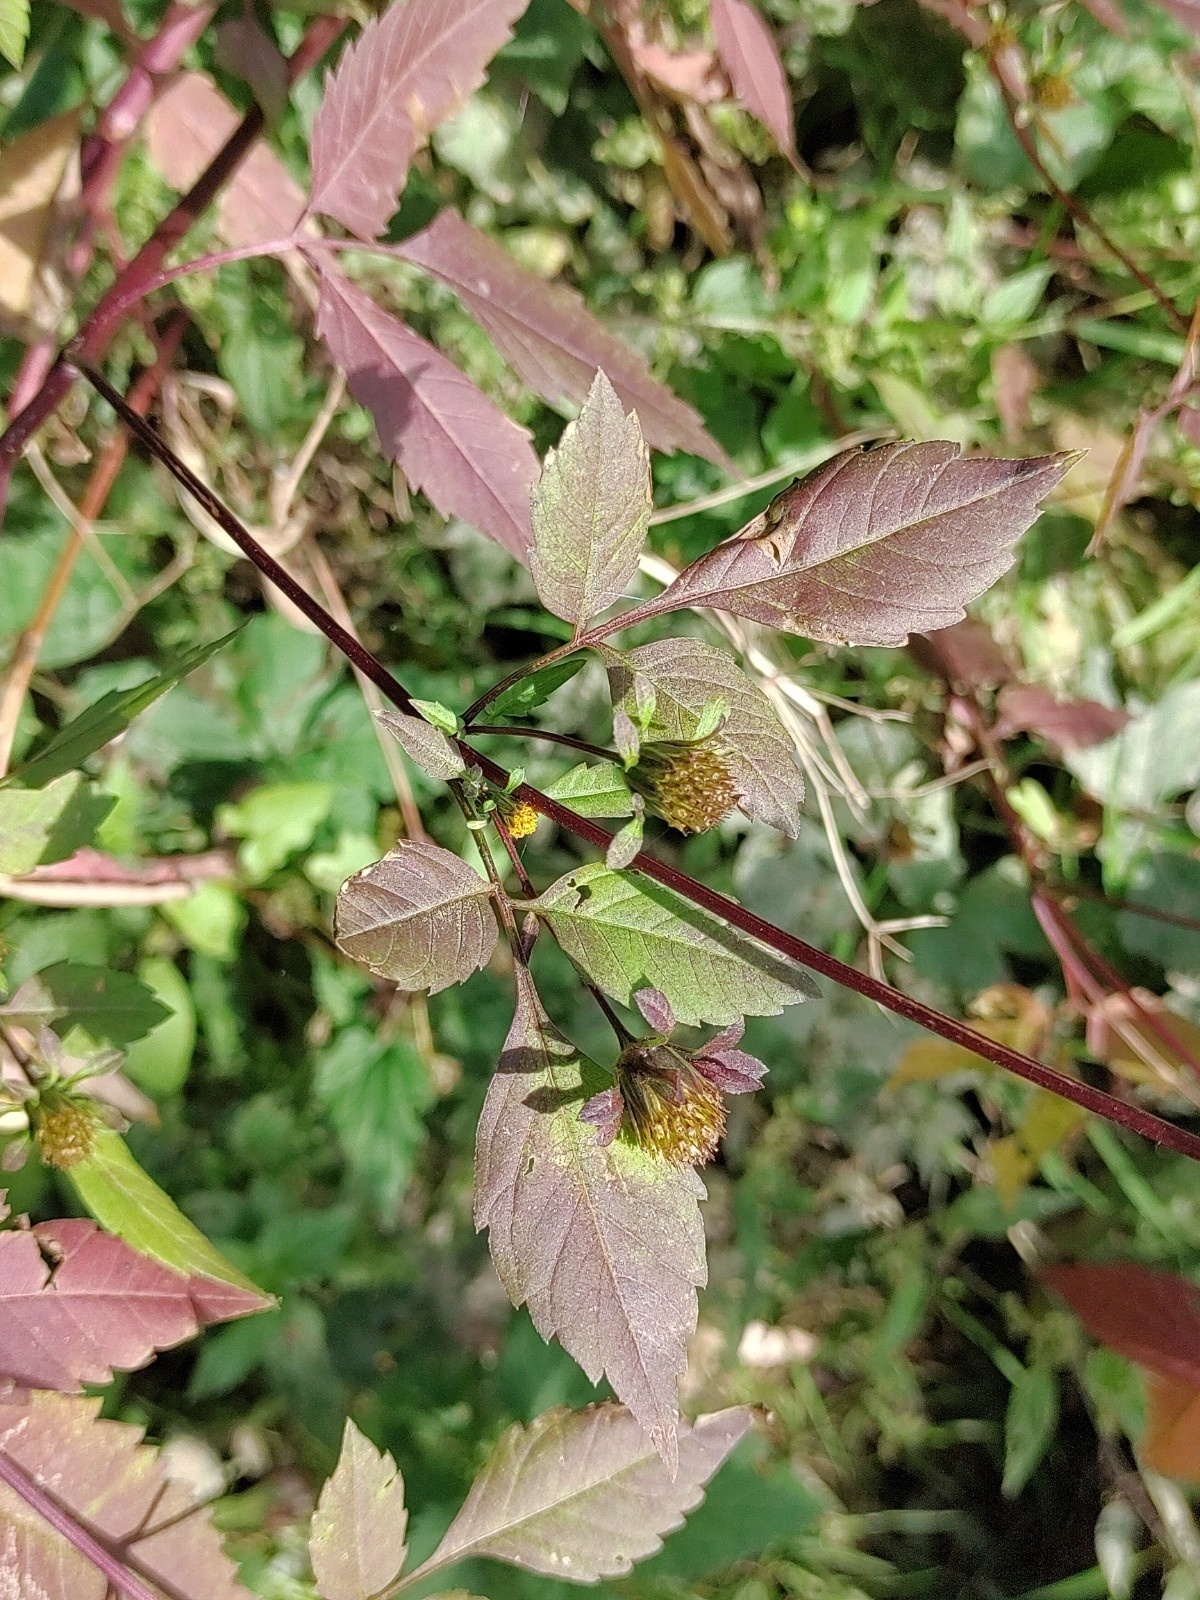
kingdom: Plantae
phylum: Tracheophyta
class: Magnoliopsida
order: Asterales
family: Asteraceae
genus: Bidens
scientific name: Bidens frondosa
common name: Beggarticks
